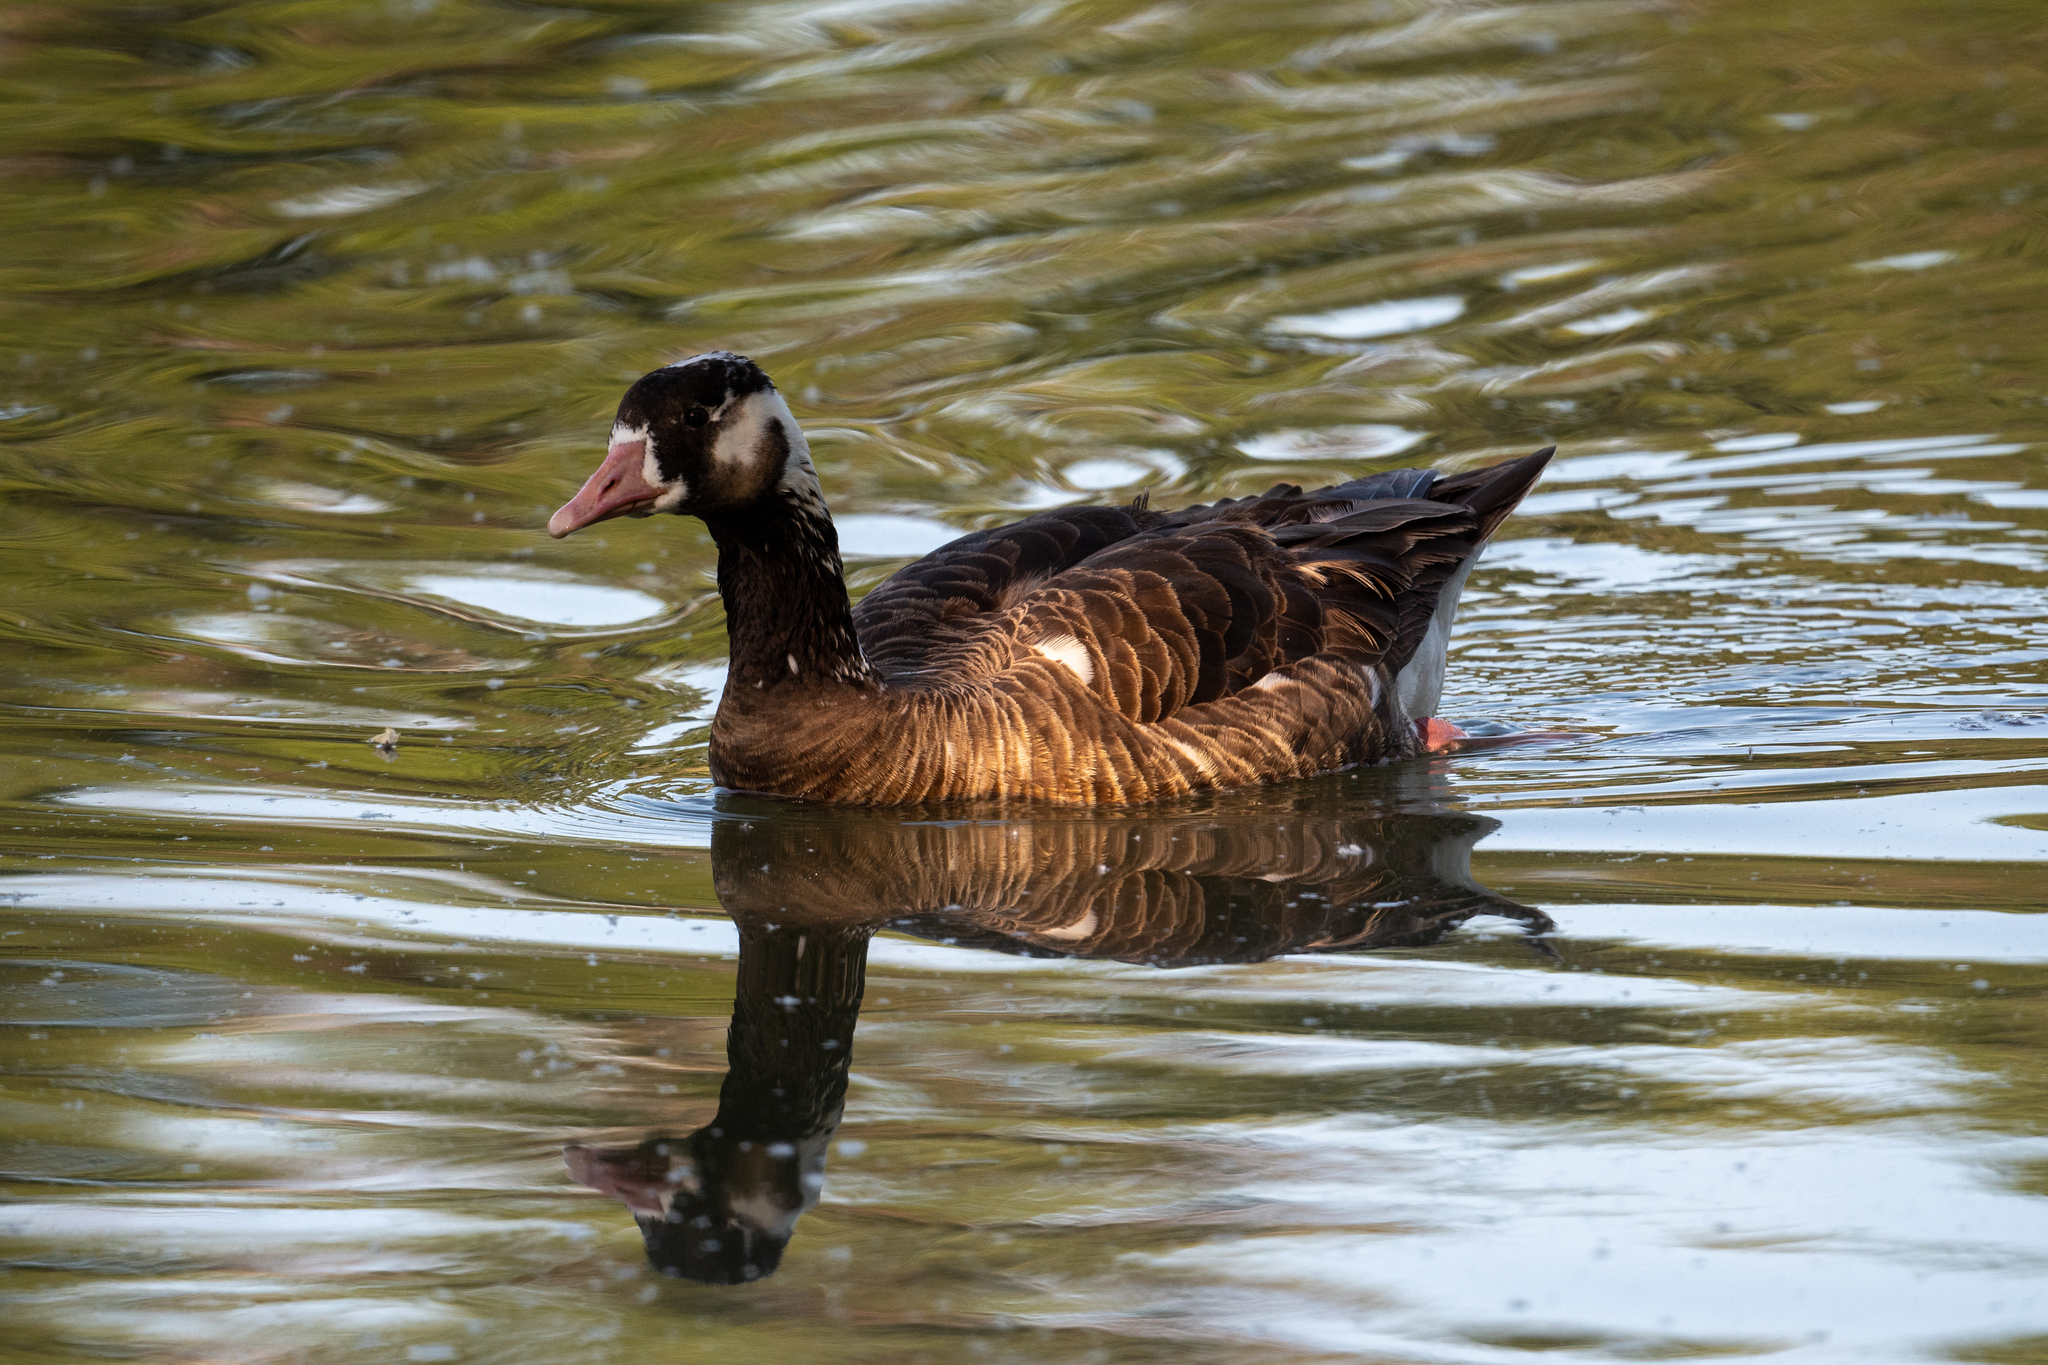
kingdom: Animalia
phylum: Chordata
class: Aves
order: Anseriformes
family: Anatidae
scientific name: Anatidae
